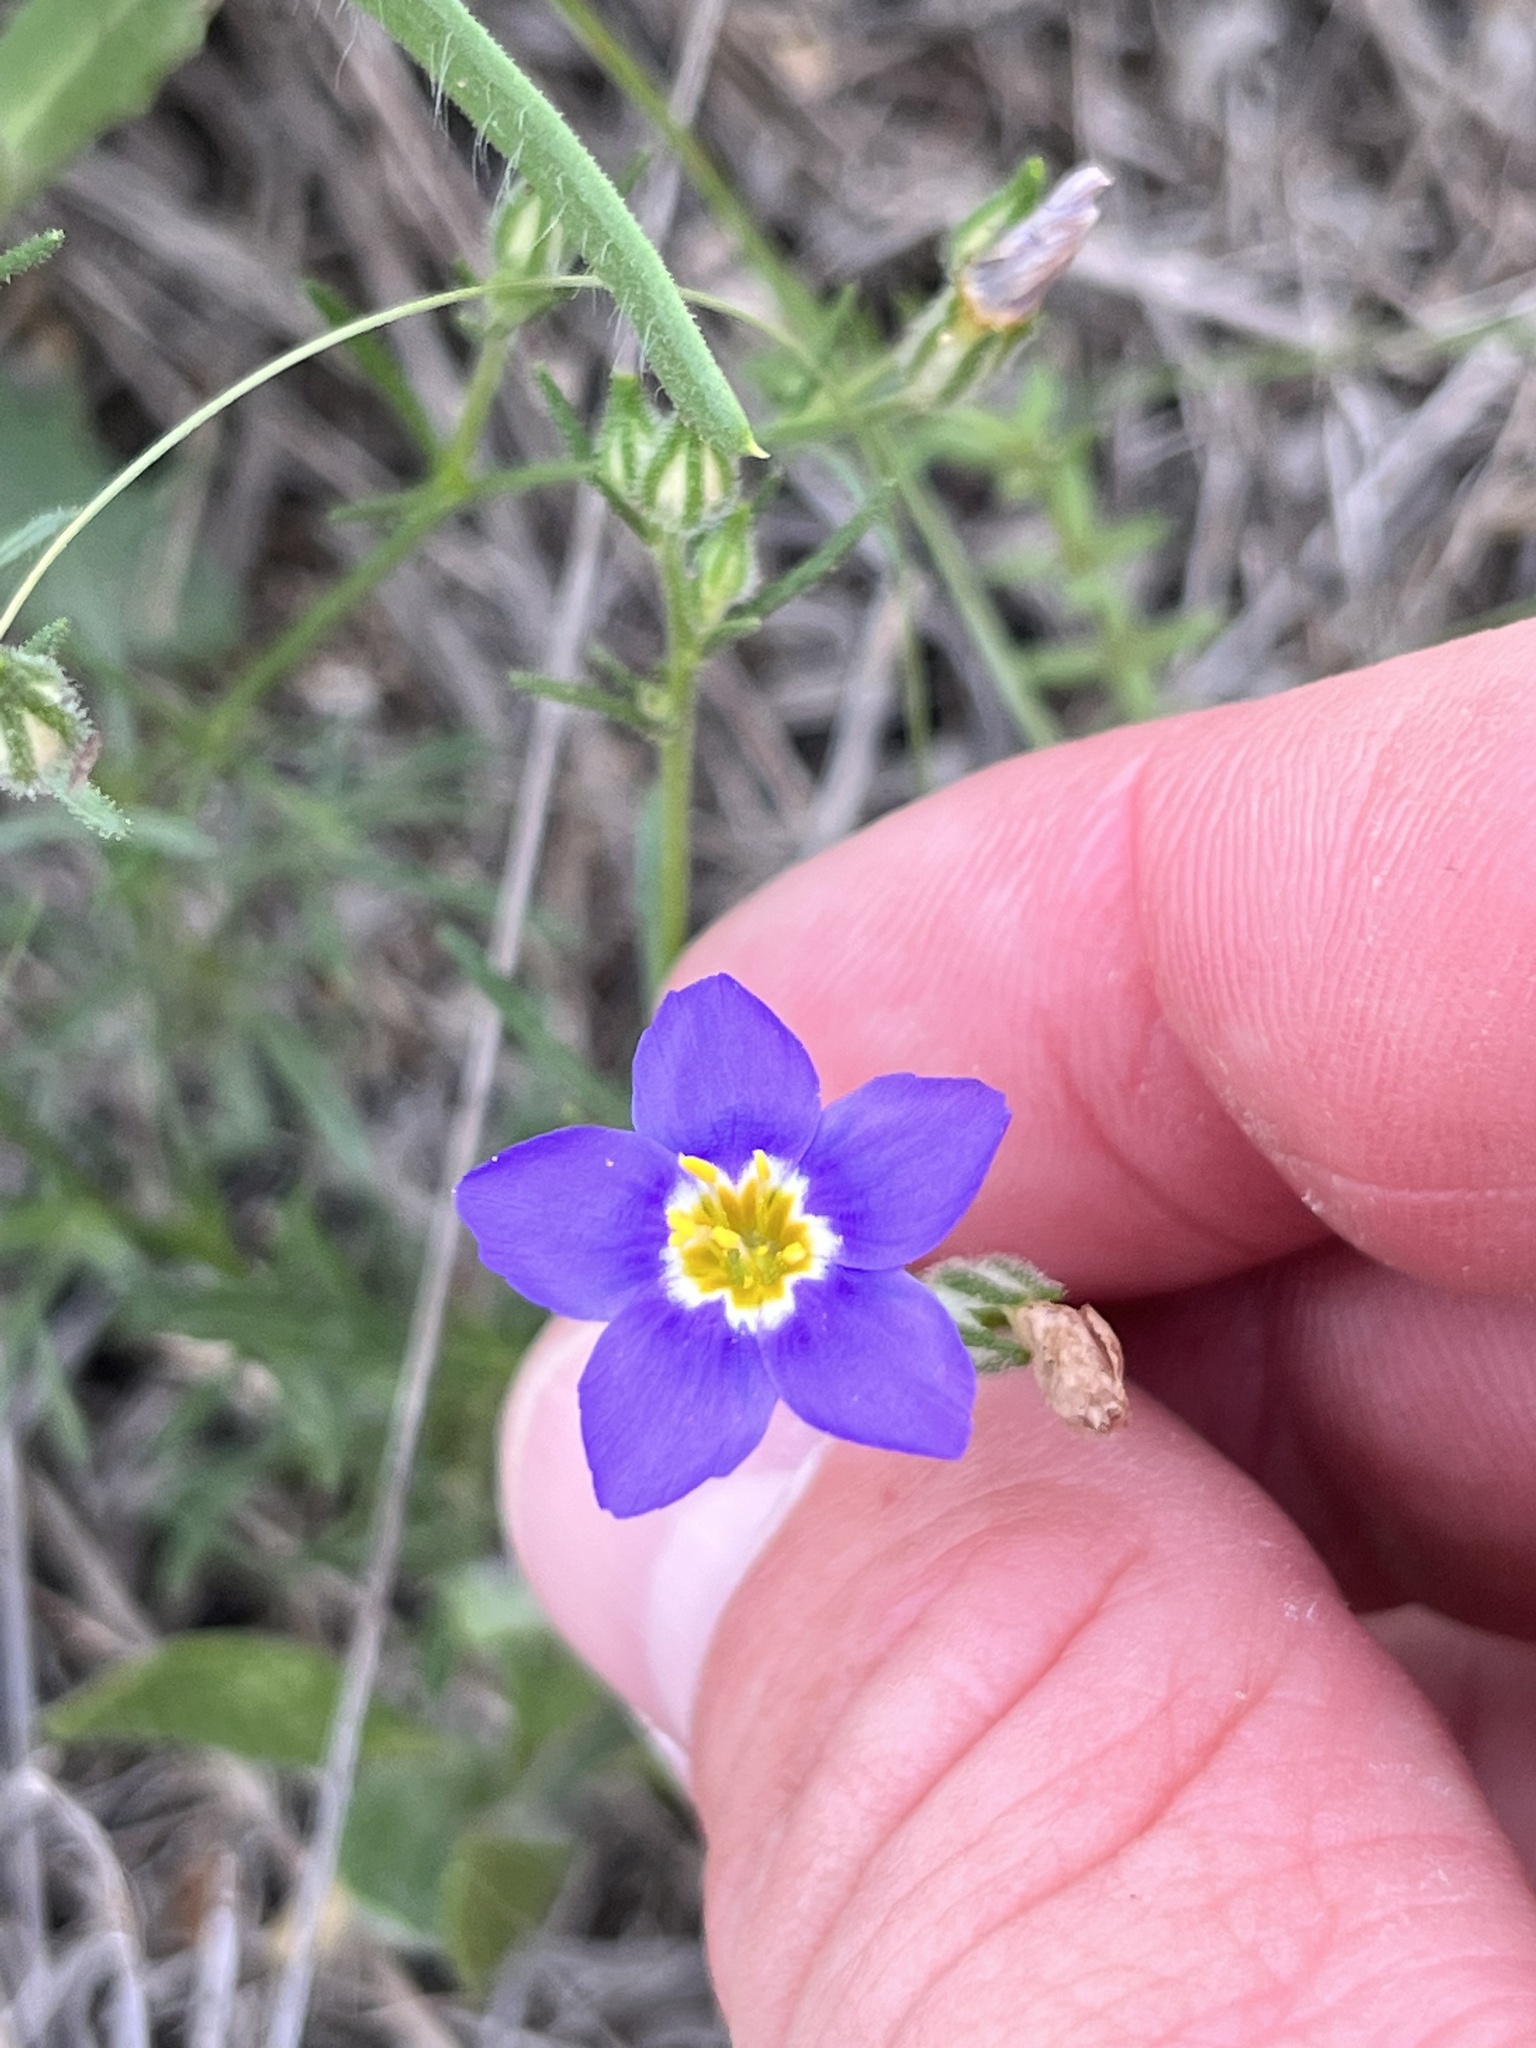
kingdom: Plantae
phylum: Tracheophyta
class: Magnoliopsida
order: Ericales
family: Polemoniaceae
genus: Giliastrum
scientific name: Giliastrum rigidulum
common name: Bluebowls
